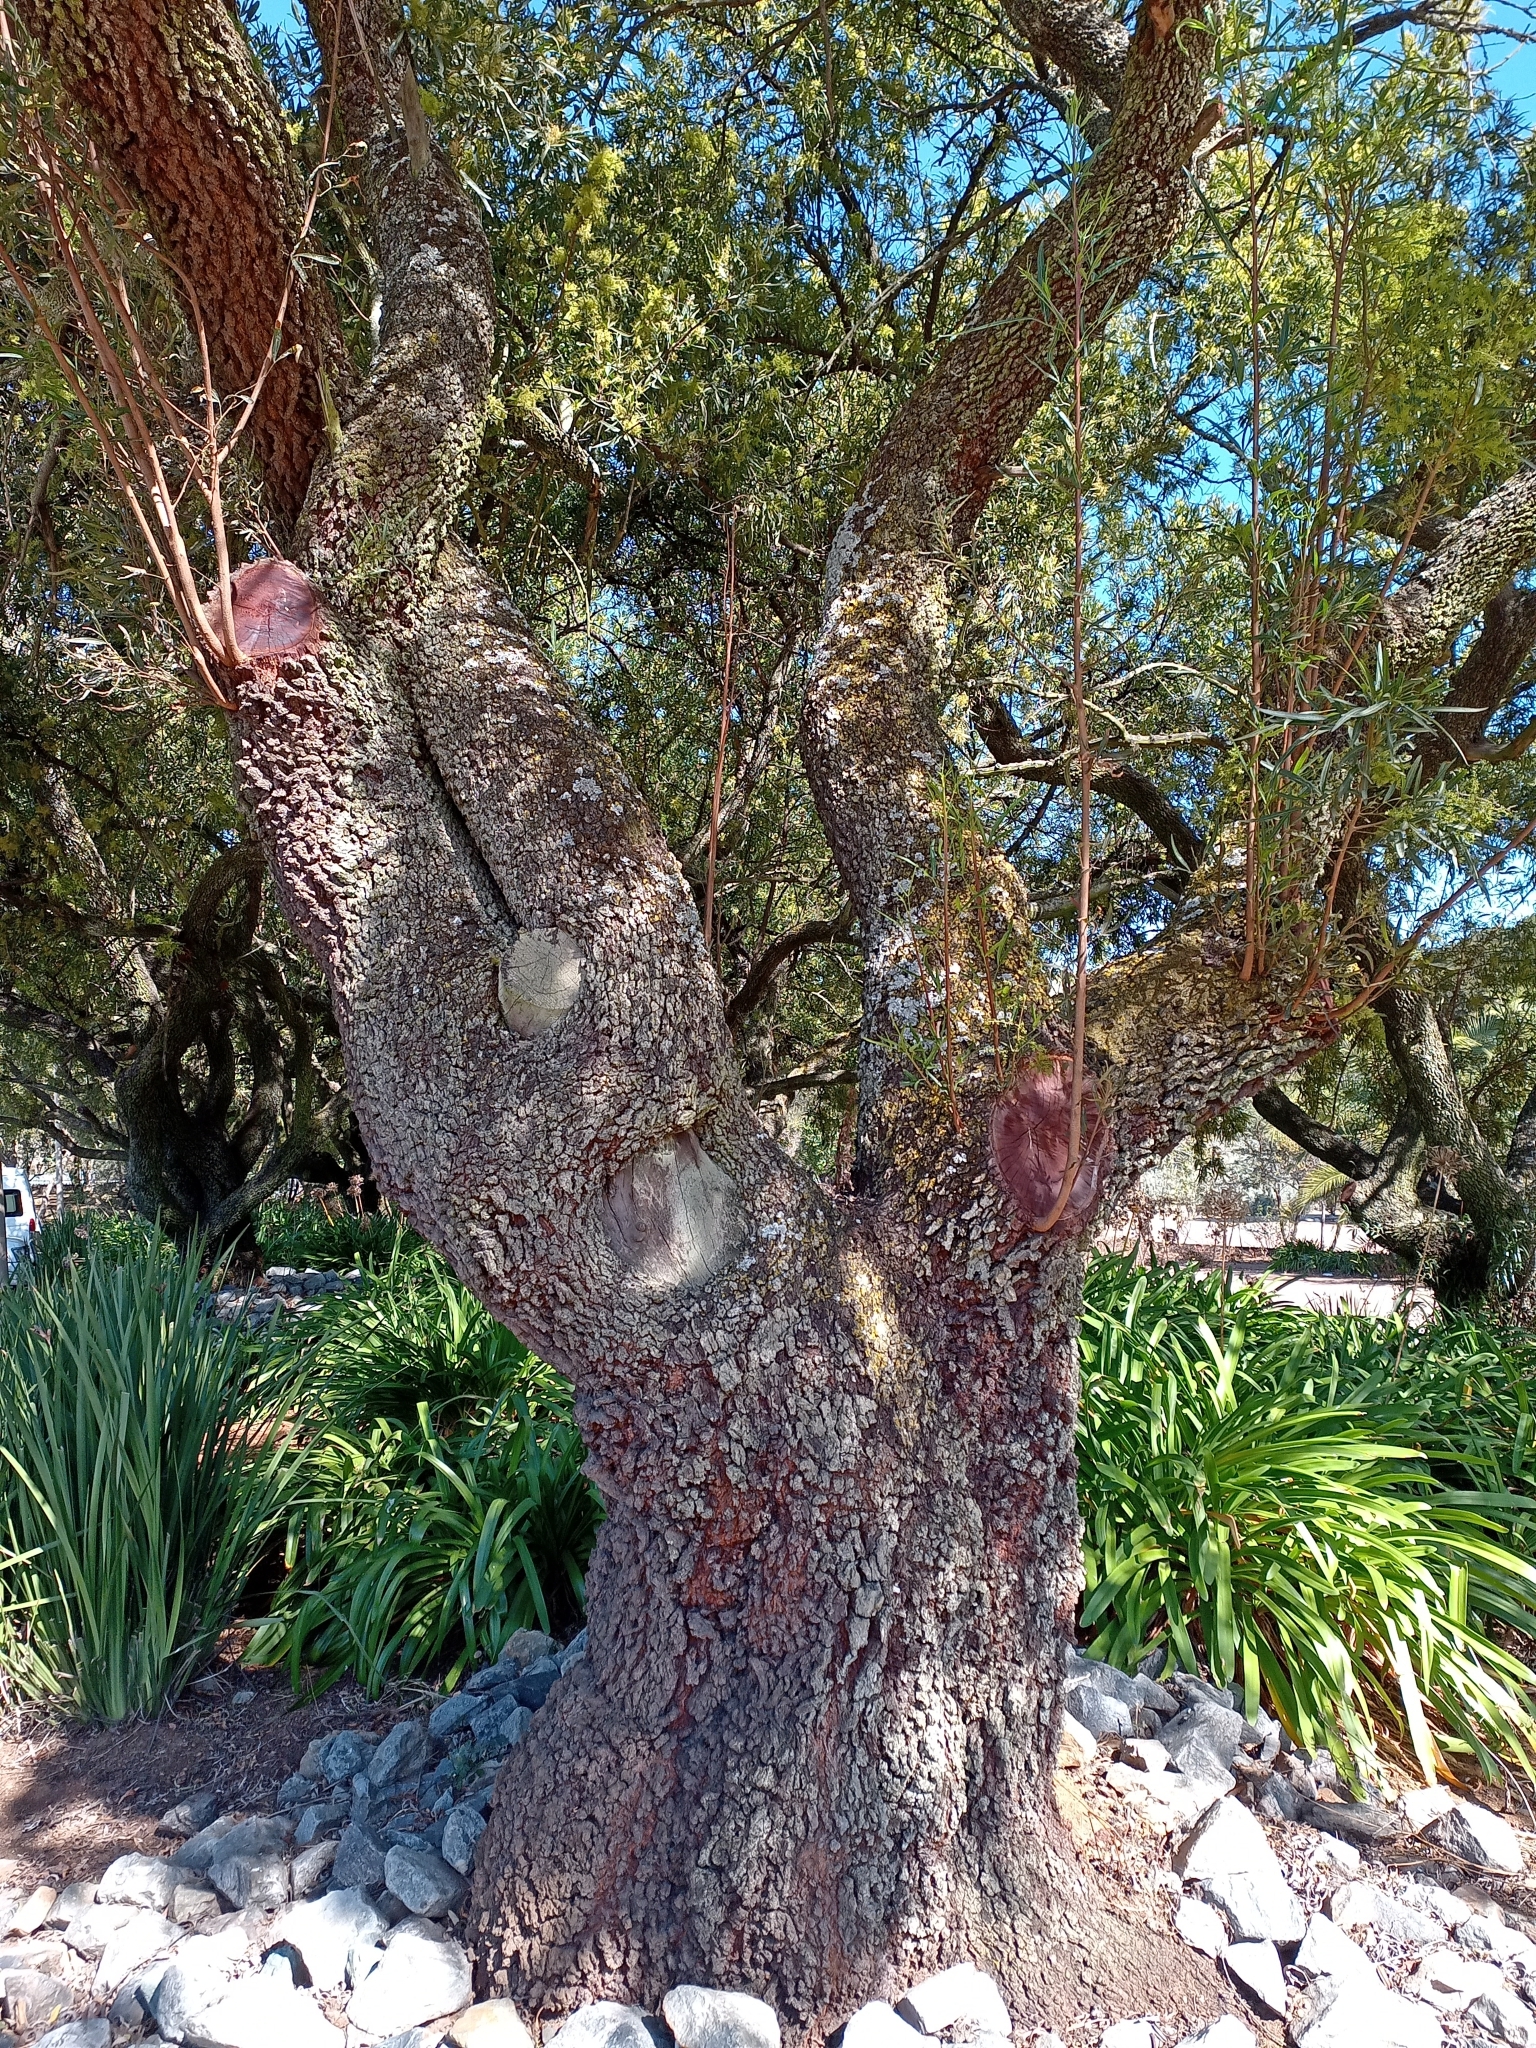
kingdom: Plantae
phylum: Tracheophyta
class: Magnoliopsida
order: Sapindales
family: Anacardiaceae
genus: Searsia
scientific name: Searsia lancea
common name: Cashew
